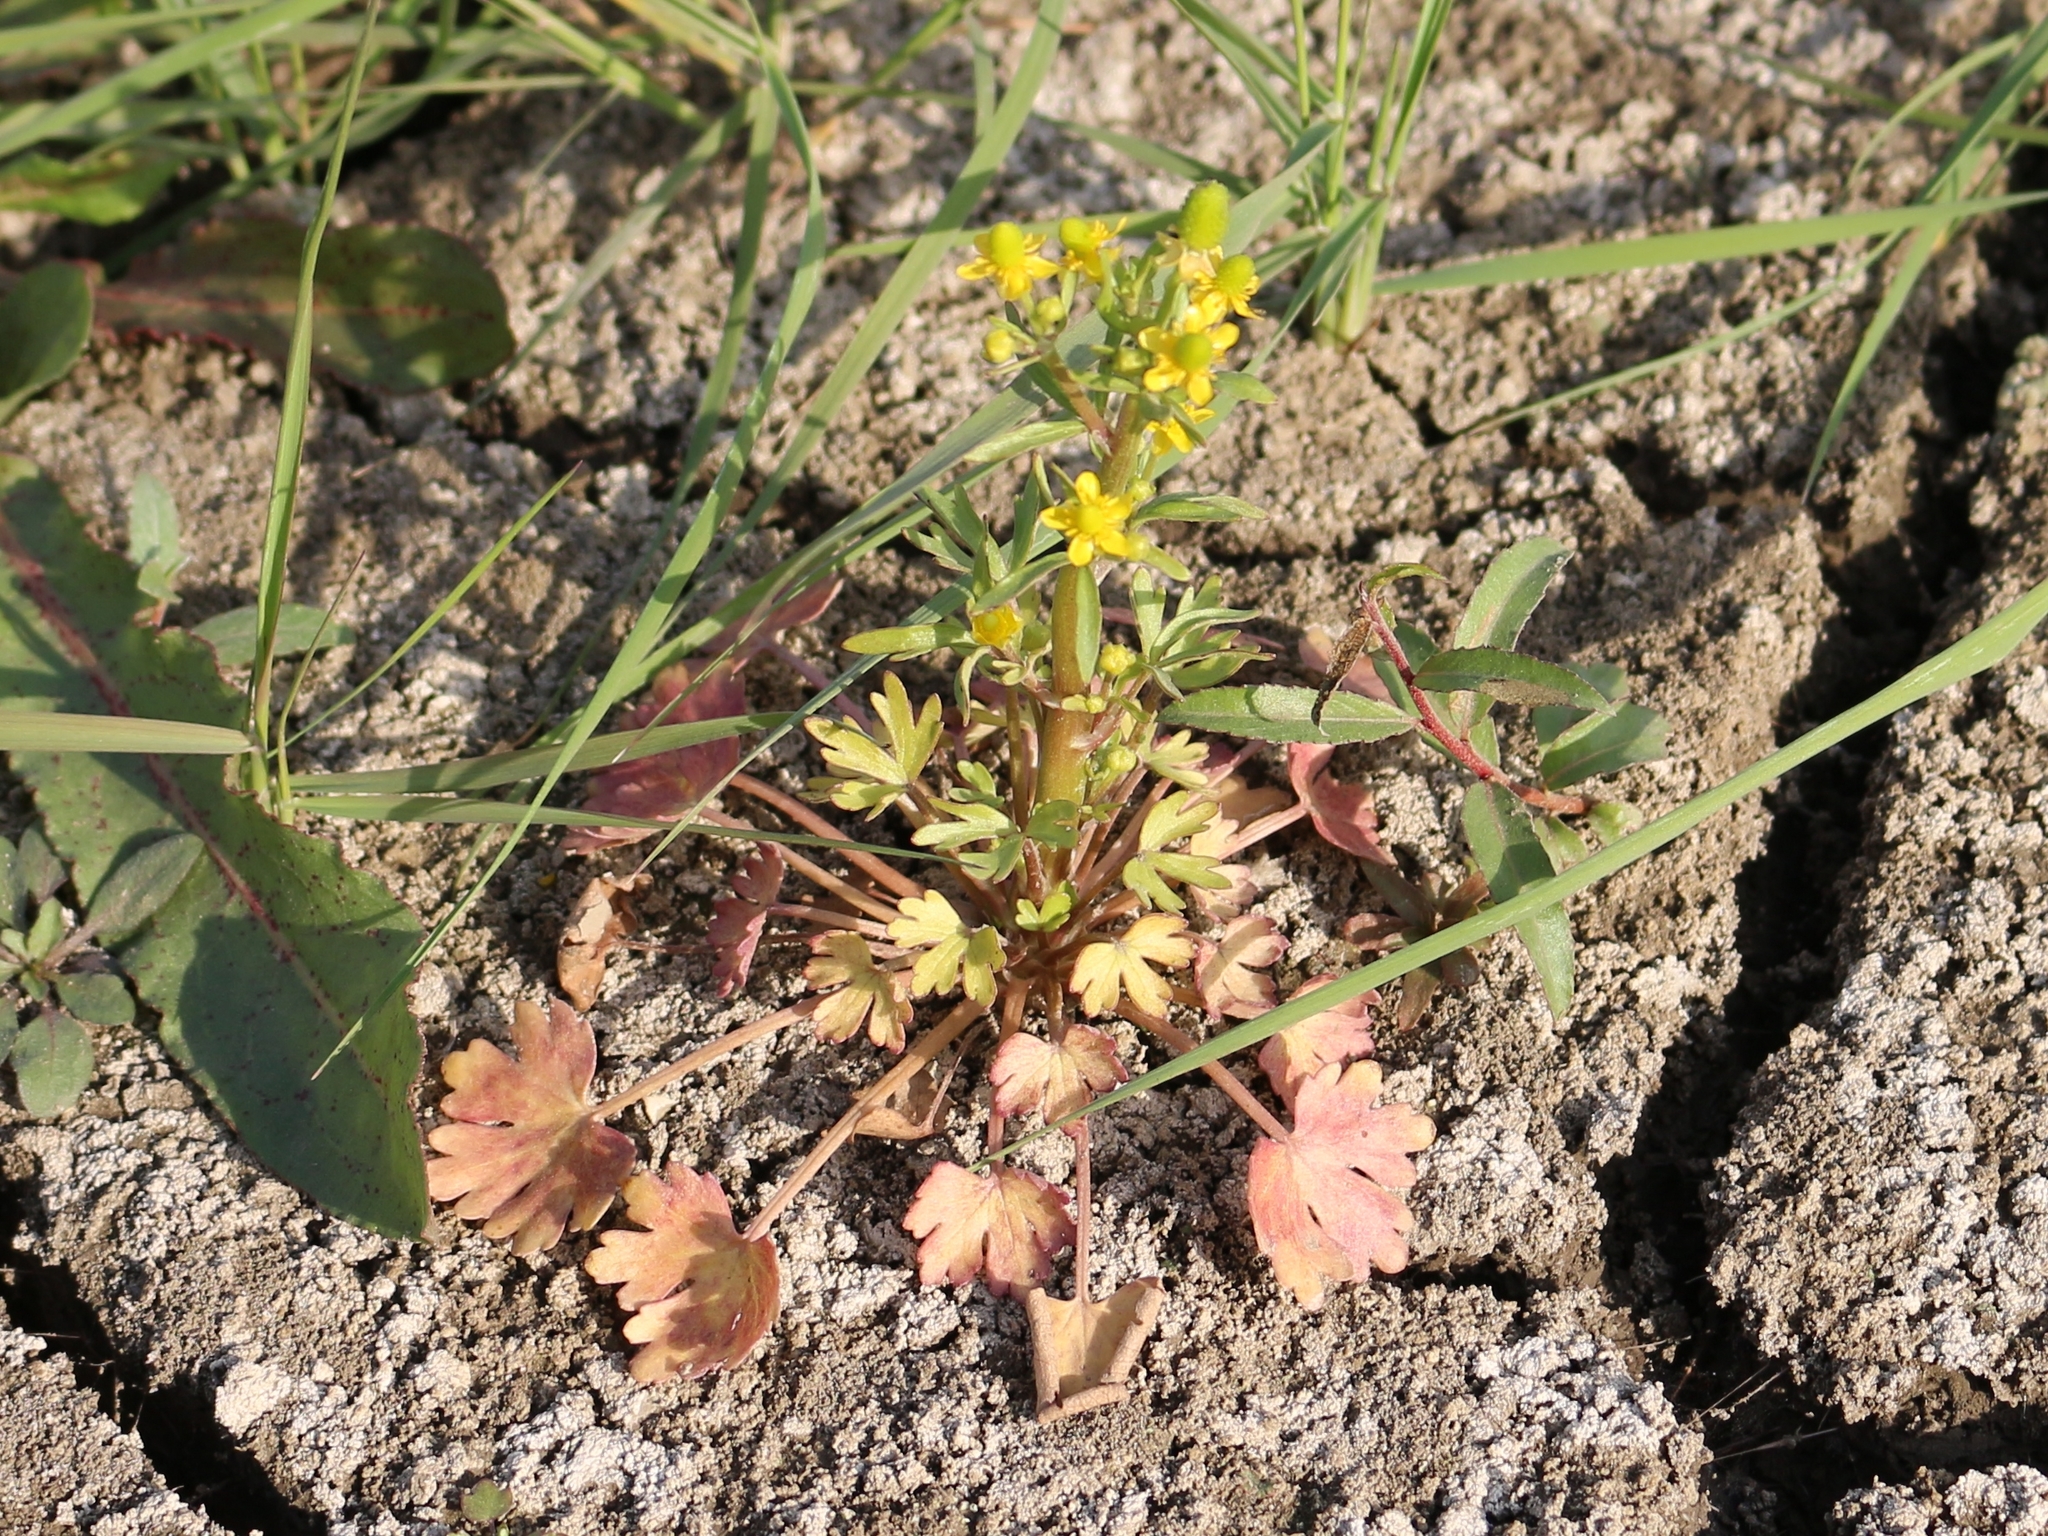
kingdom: Plantae
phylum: Tracheophyta
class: Magnoliopsida
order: Ranunculales
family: Ranunculaceae
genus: Ranunculus
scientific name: Ranunculus sceleratus
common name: Celery-leaved buttercup
